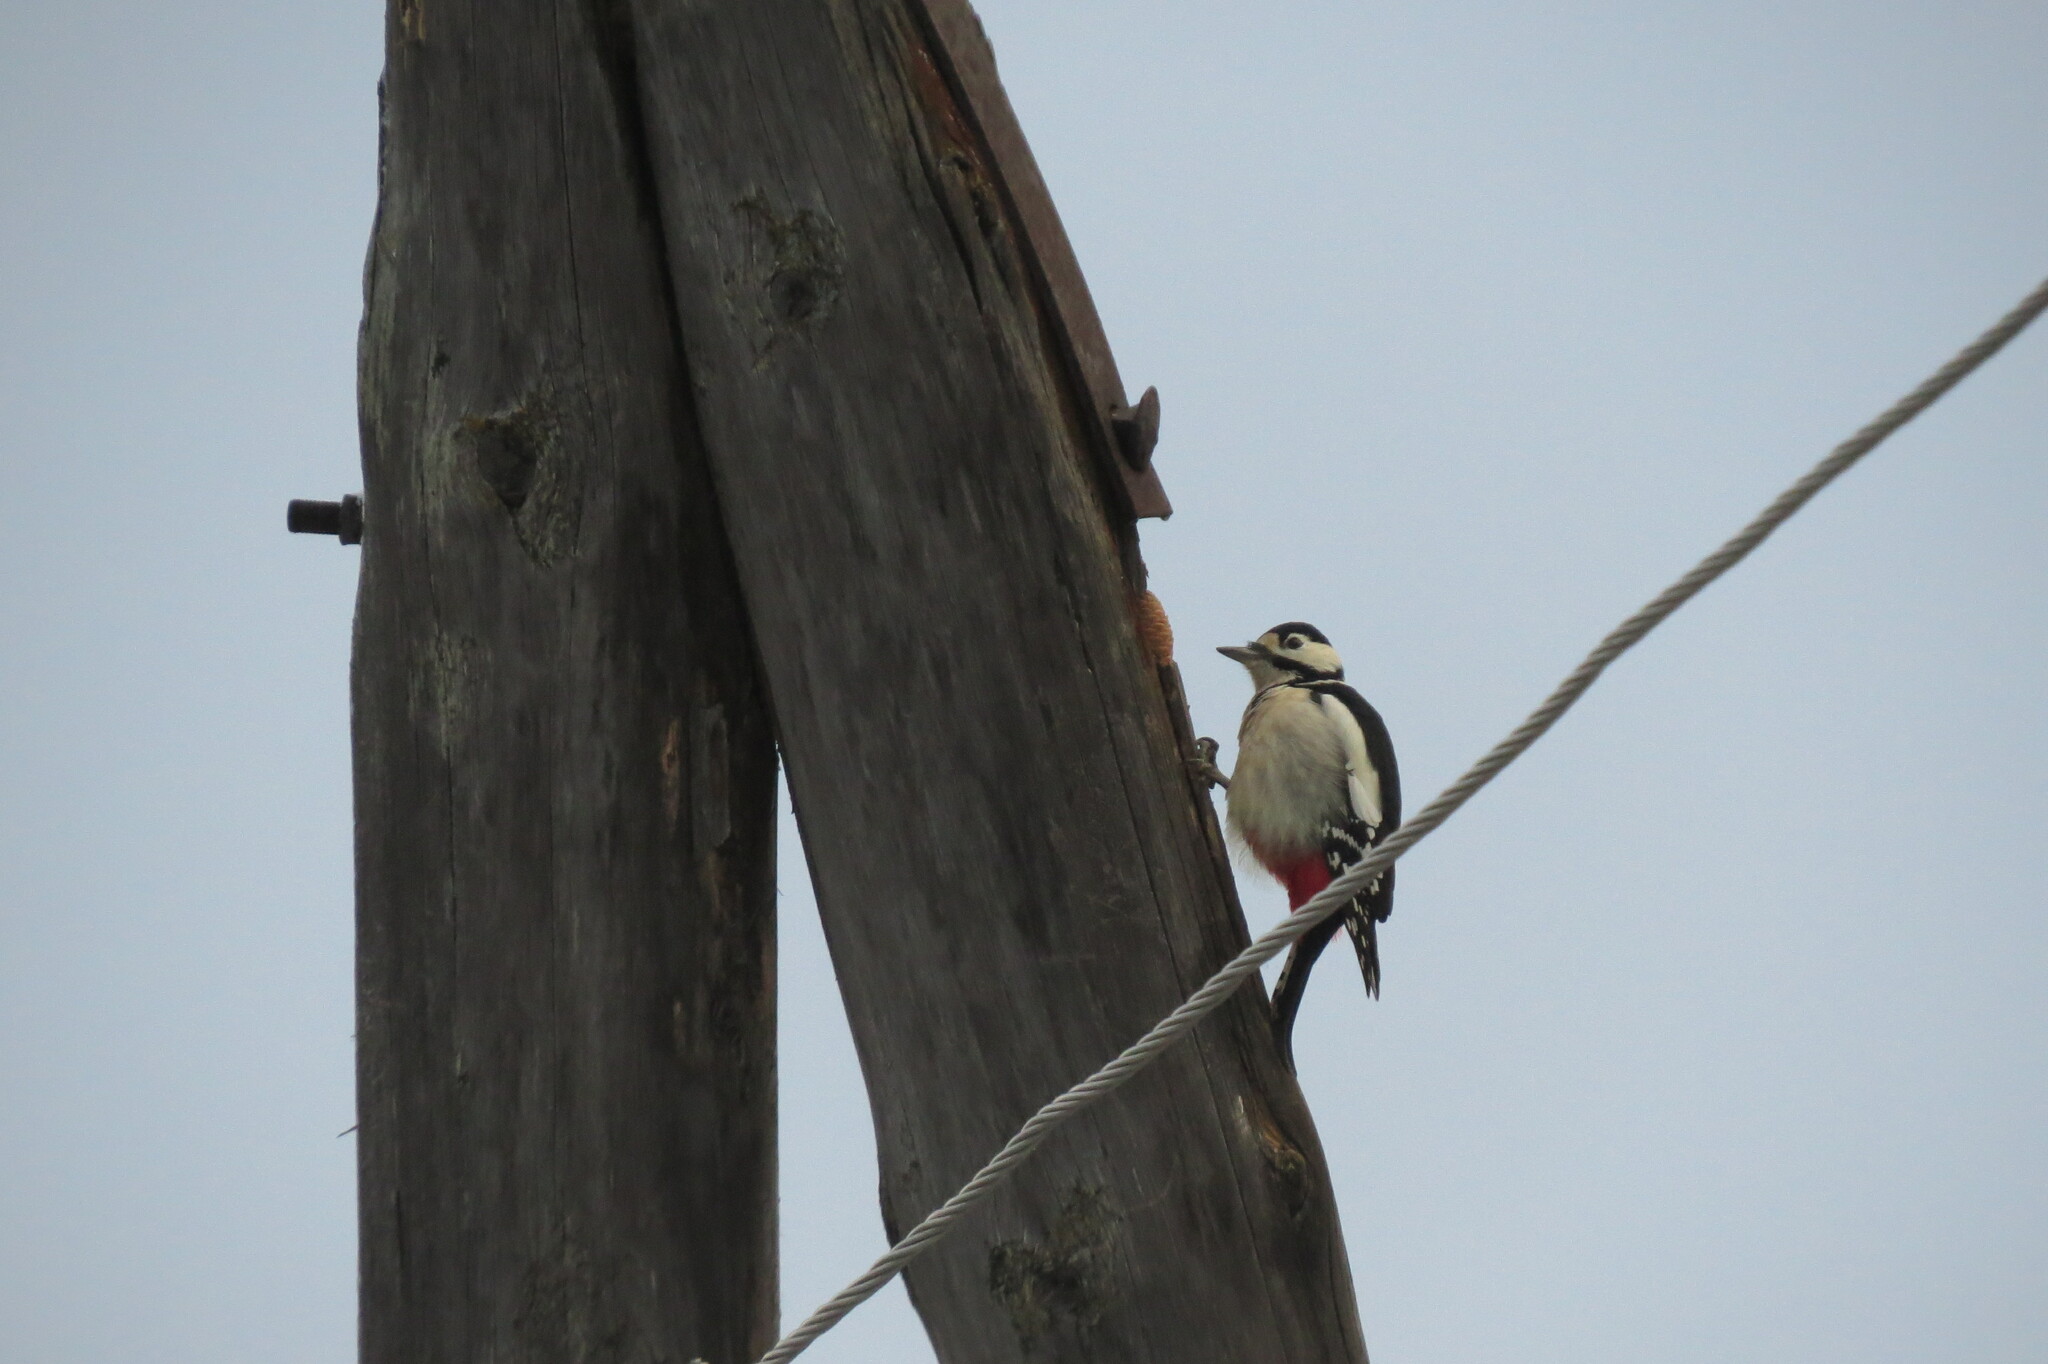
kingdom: Animalia
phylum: Chordata
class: Aves
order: Piciformes
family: Picidae
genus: Dendrocopos
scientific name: Dendrocopos major
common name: Great spotted woodpecker
